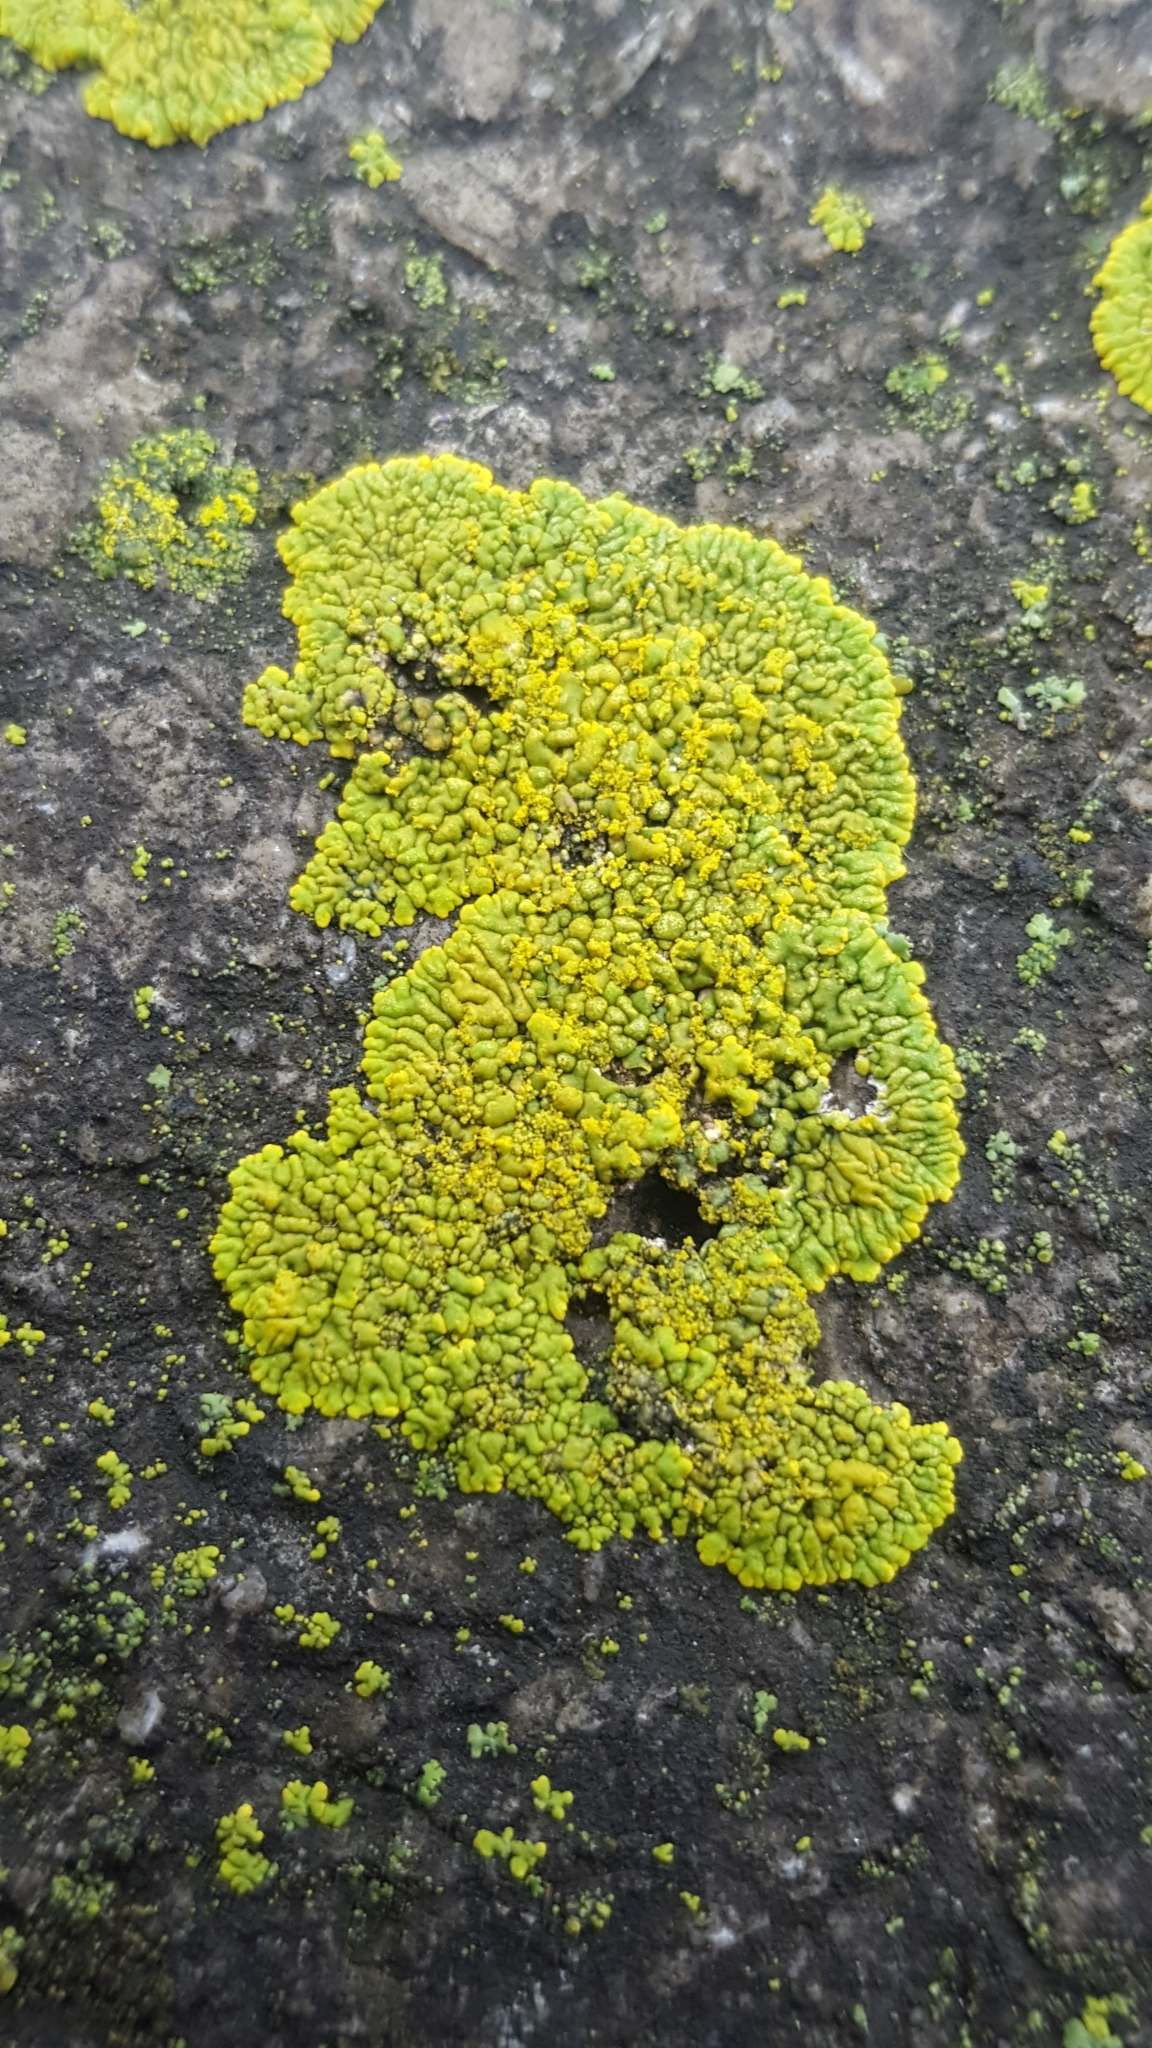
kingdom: Fungi
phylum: Ascomycota
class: Lecanoromycetes
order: Teloschistales
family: Teloschistaceae
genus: Calogaya
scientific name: Calogaya decipiens
